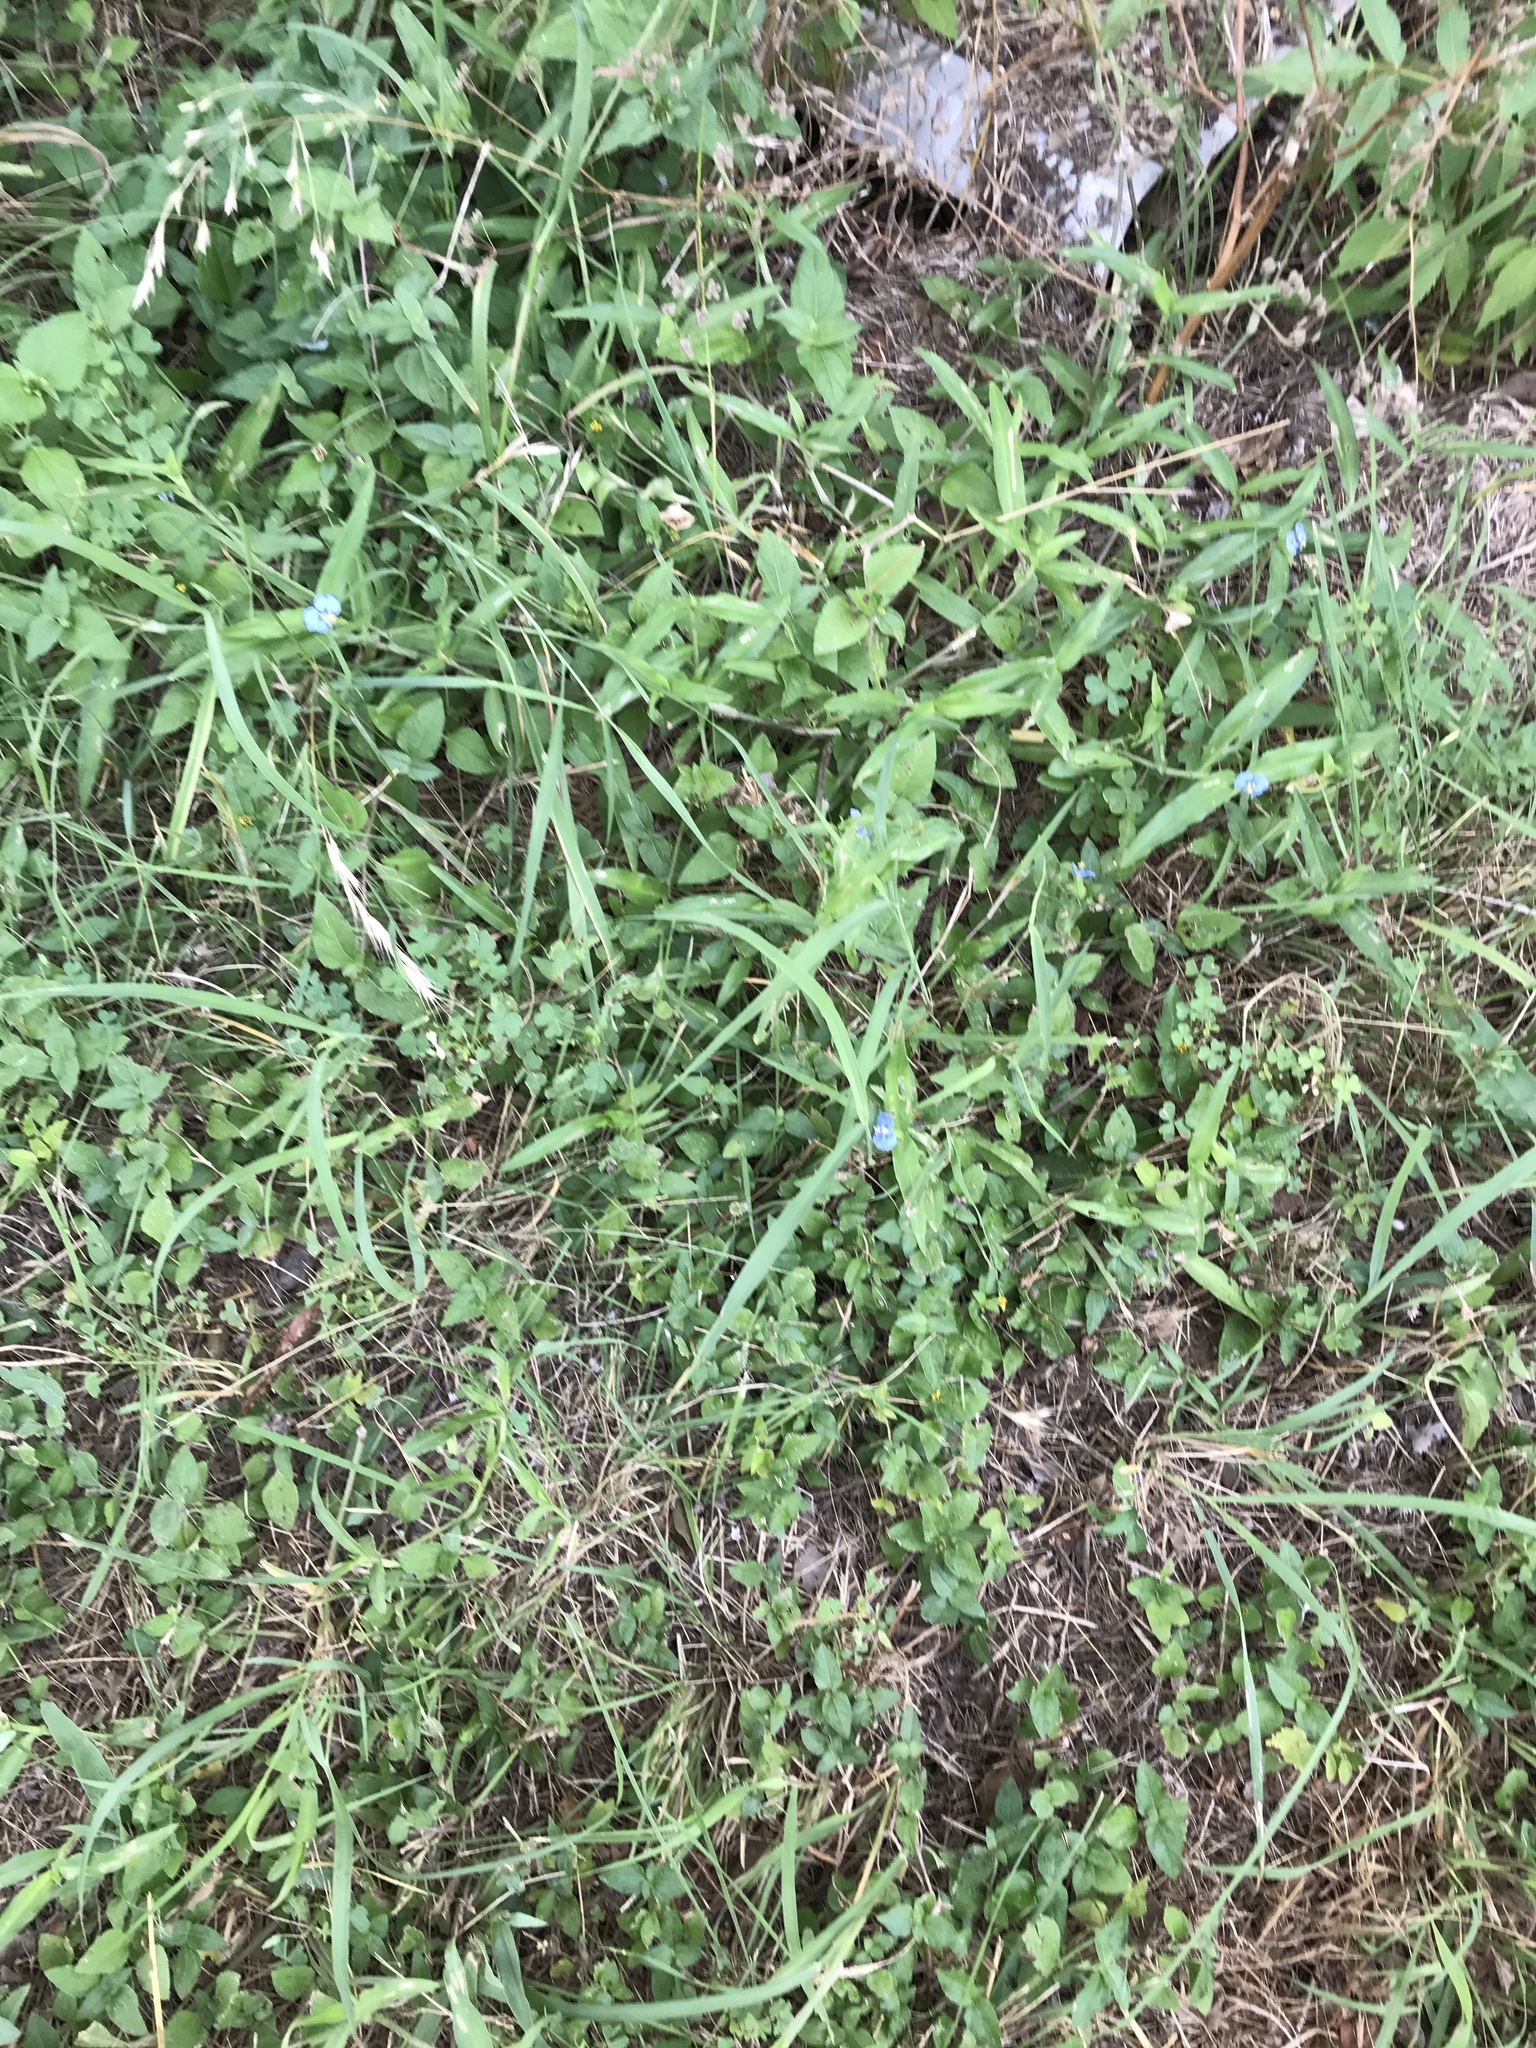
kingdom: Plantae
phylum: Tracheophyta
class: Liliopsida
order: Commelinales
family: Commelinaceae
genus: Commelina
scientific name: Commelina erecta
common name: Blousel blommetjie
